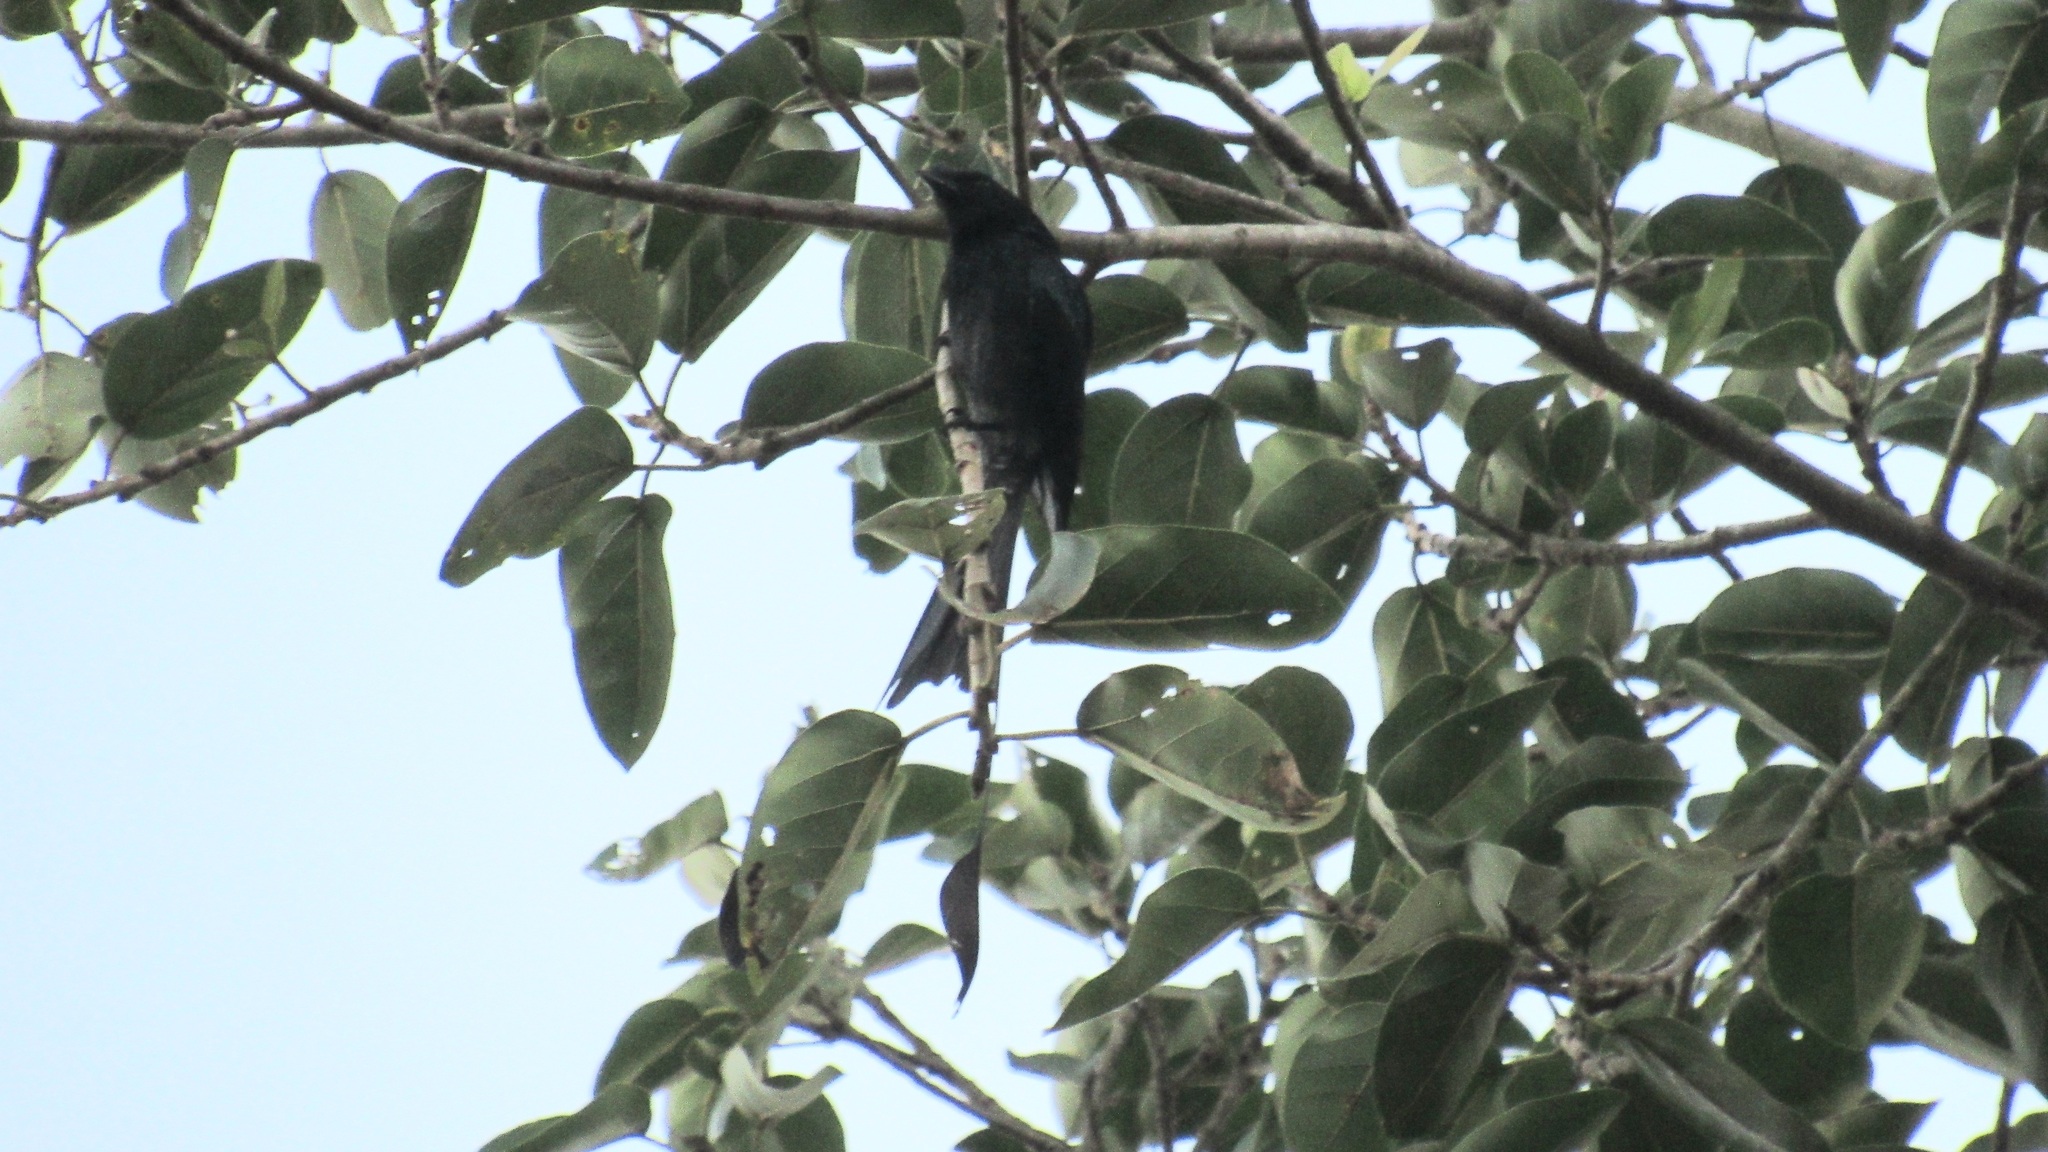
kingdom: Animalia
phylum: Chordata
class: Aves
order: Passeriformes
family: Dicruridae
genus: Dicrurus
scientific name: Dicrurus paradiseus
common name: Greater racket-tailed drongo
